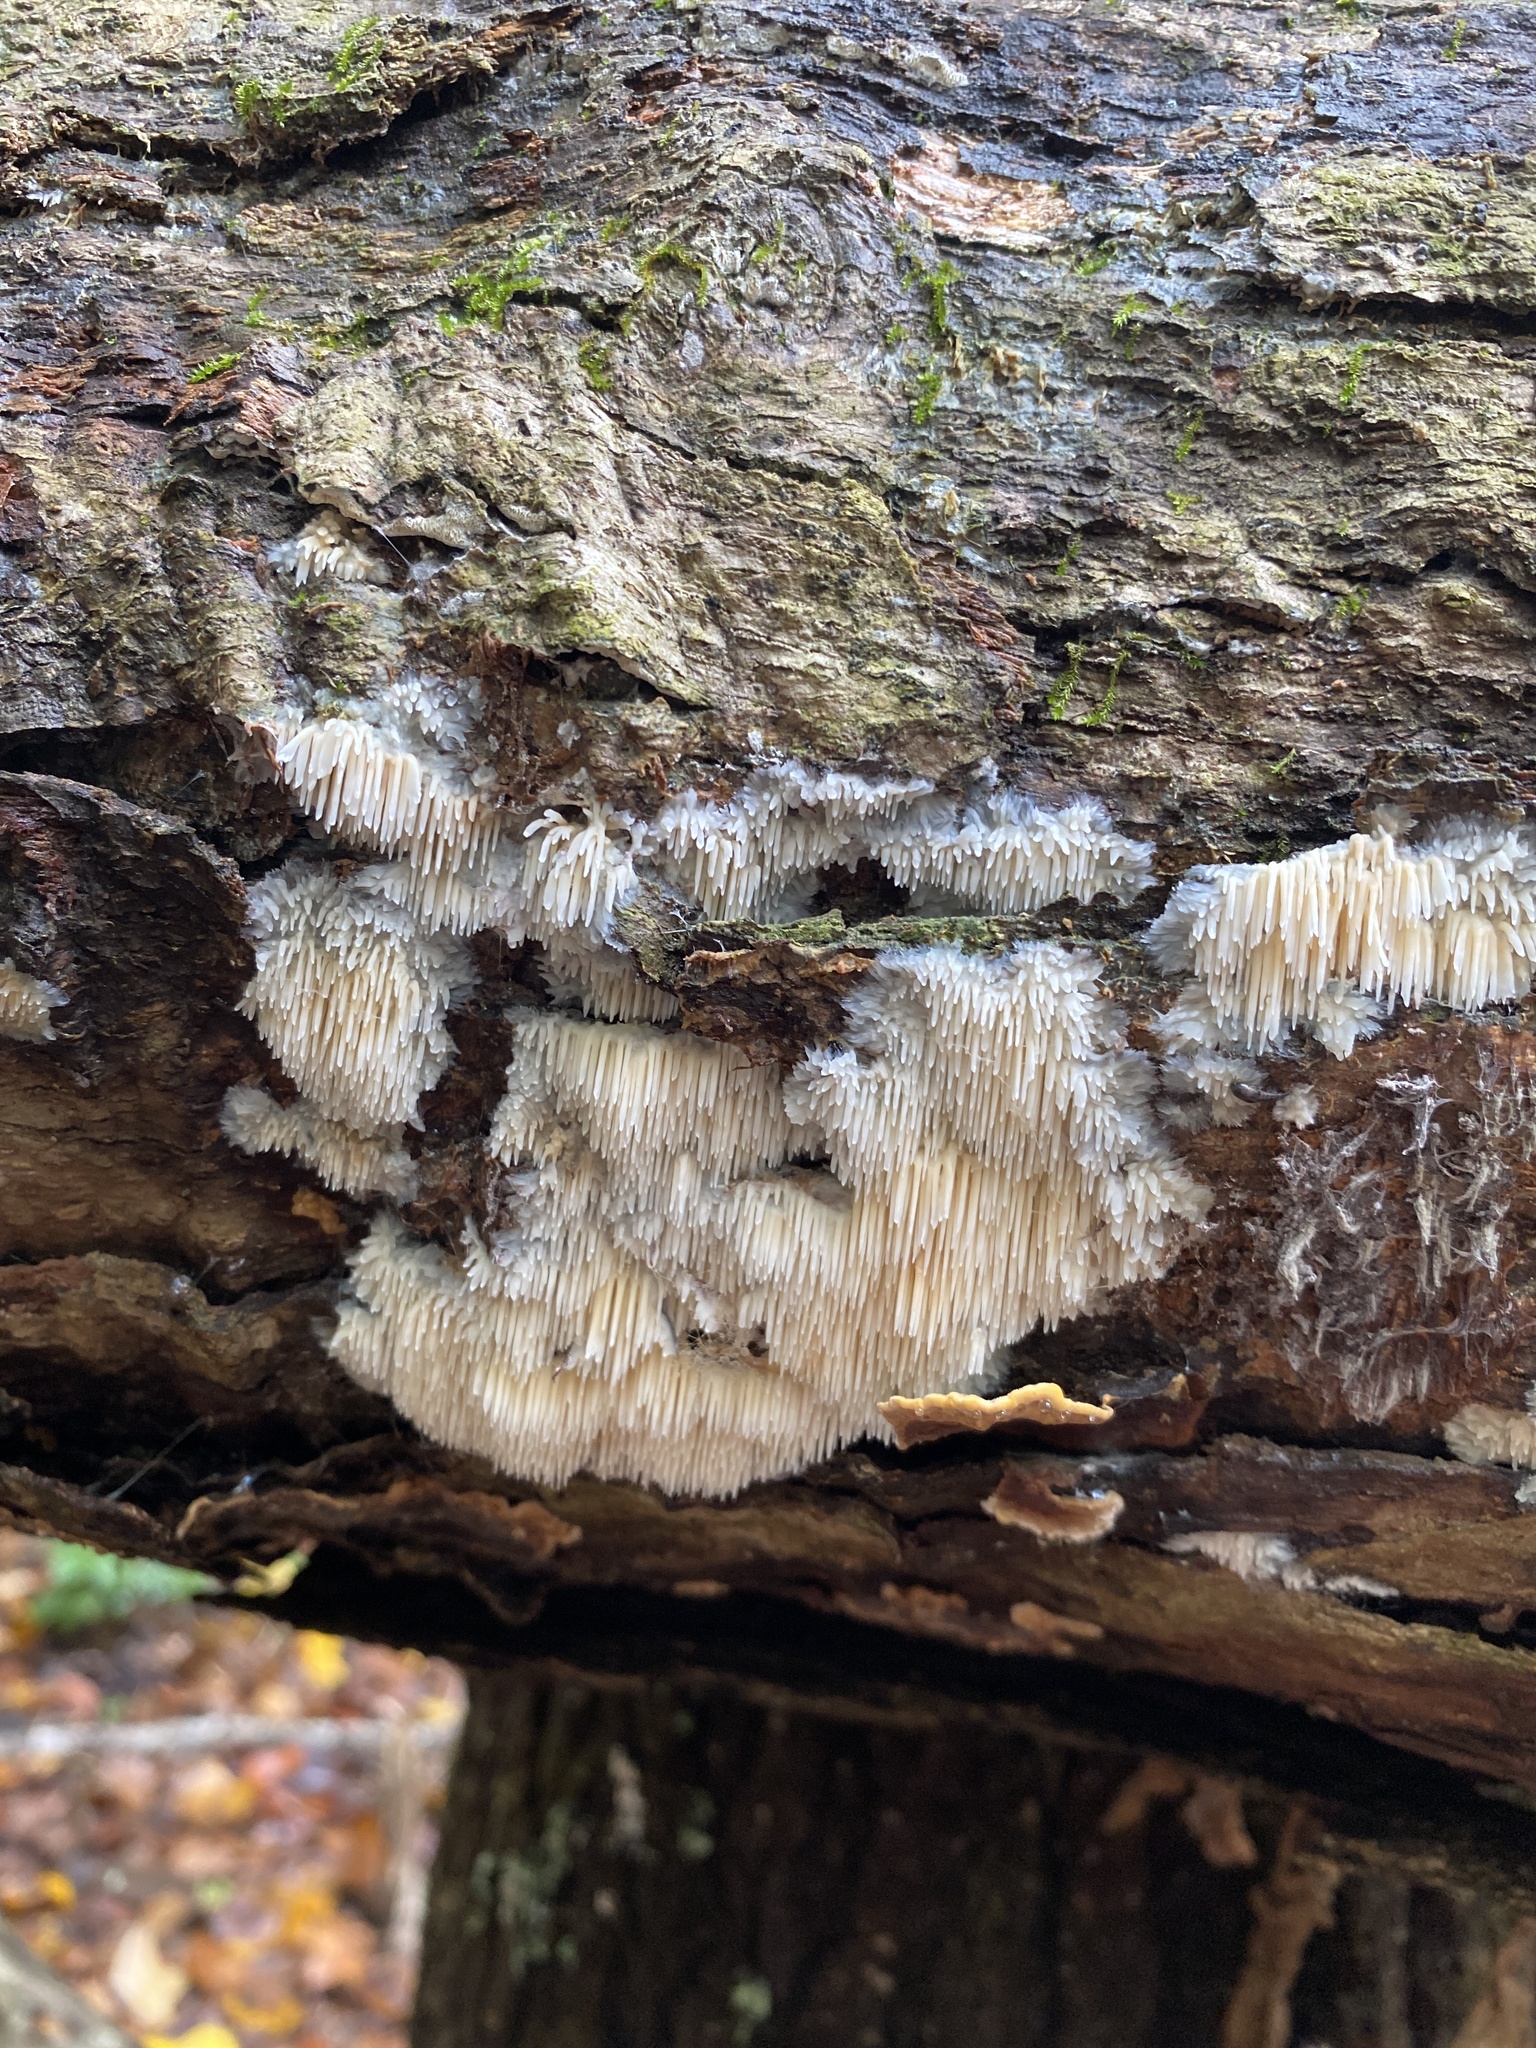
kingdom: Fungi
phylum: Basidiomycota
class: Agaricomycetes
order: Agaricales
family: Radulomycetaceae
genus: Radulomyces
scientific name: Radulomyces copelandii
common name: Asian beauty
